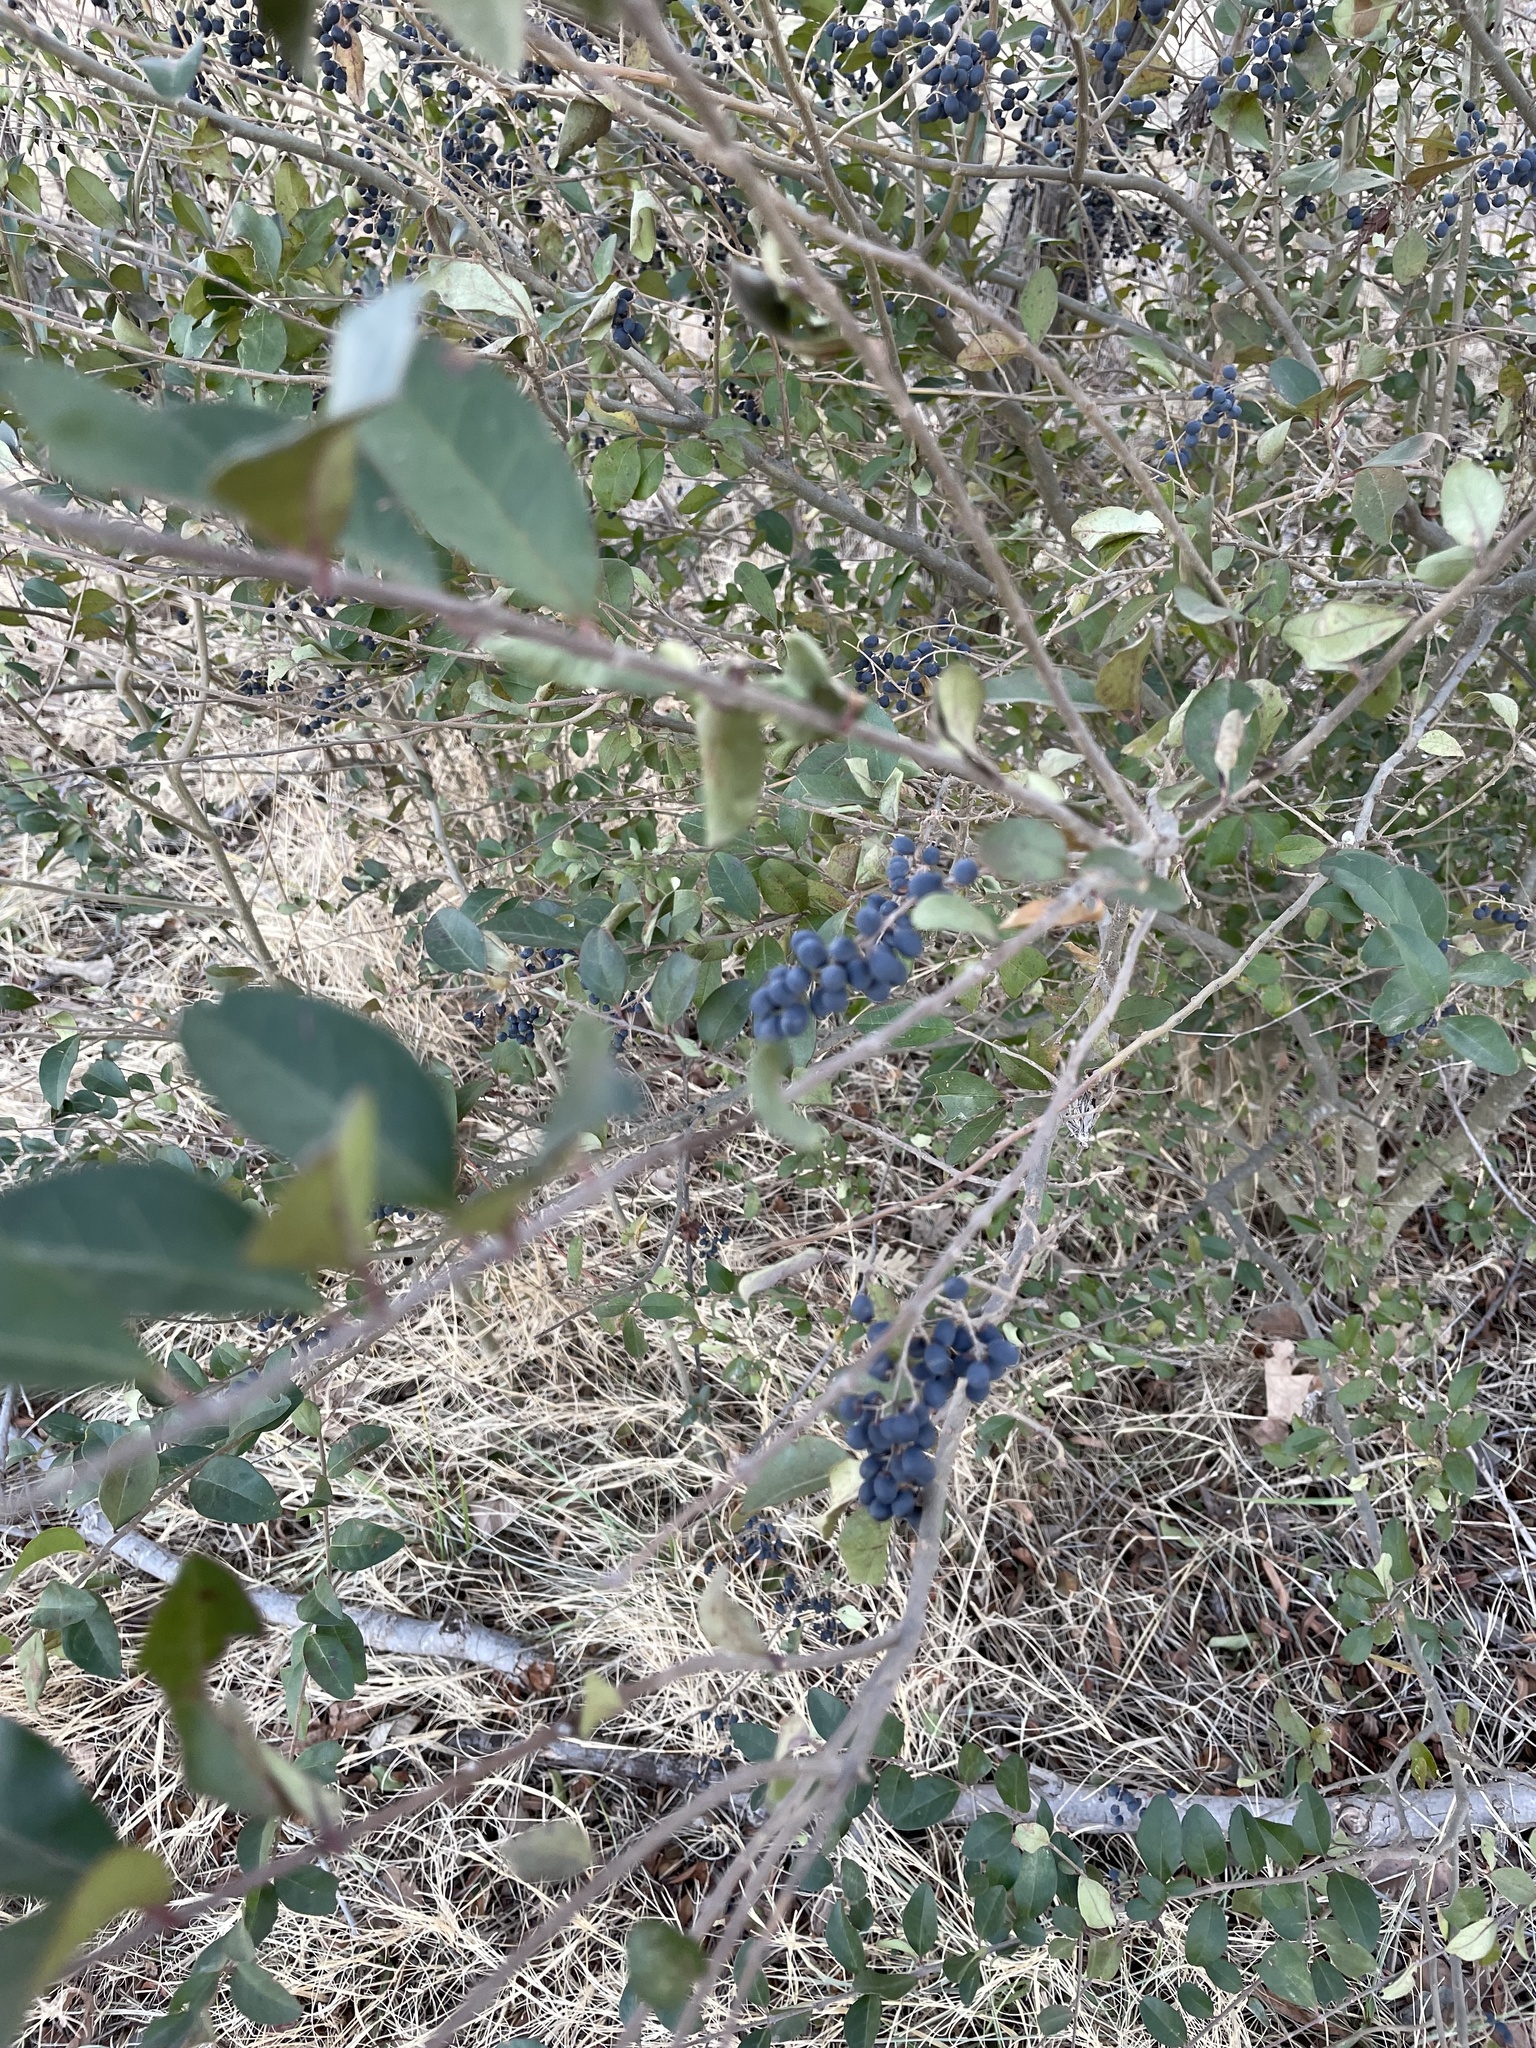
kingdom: Plantae
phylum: Tracheophyta
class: Magnoliopsida
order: Lamiales
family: Oleaceae
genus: Ligustrum
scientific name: Ligustrum sinense
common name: Chinese privet
